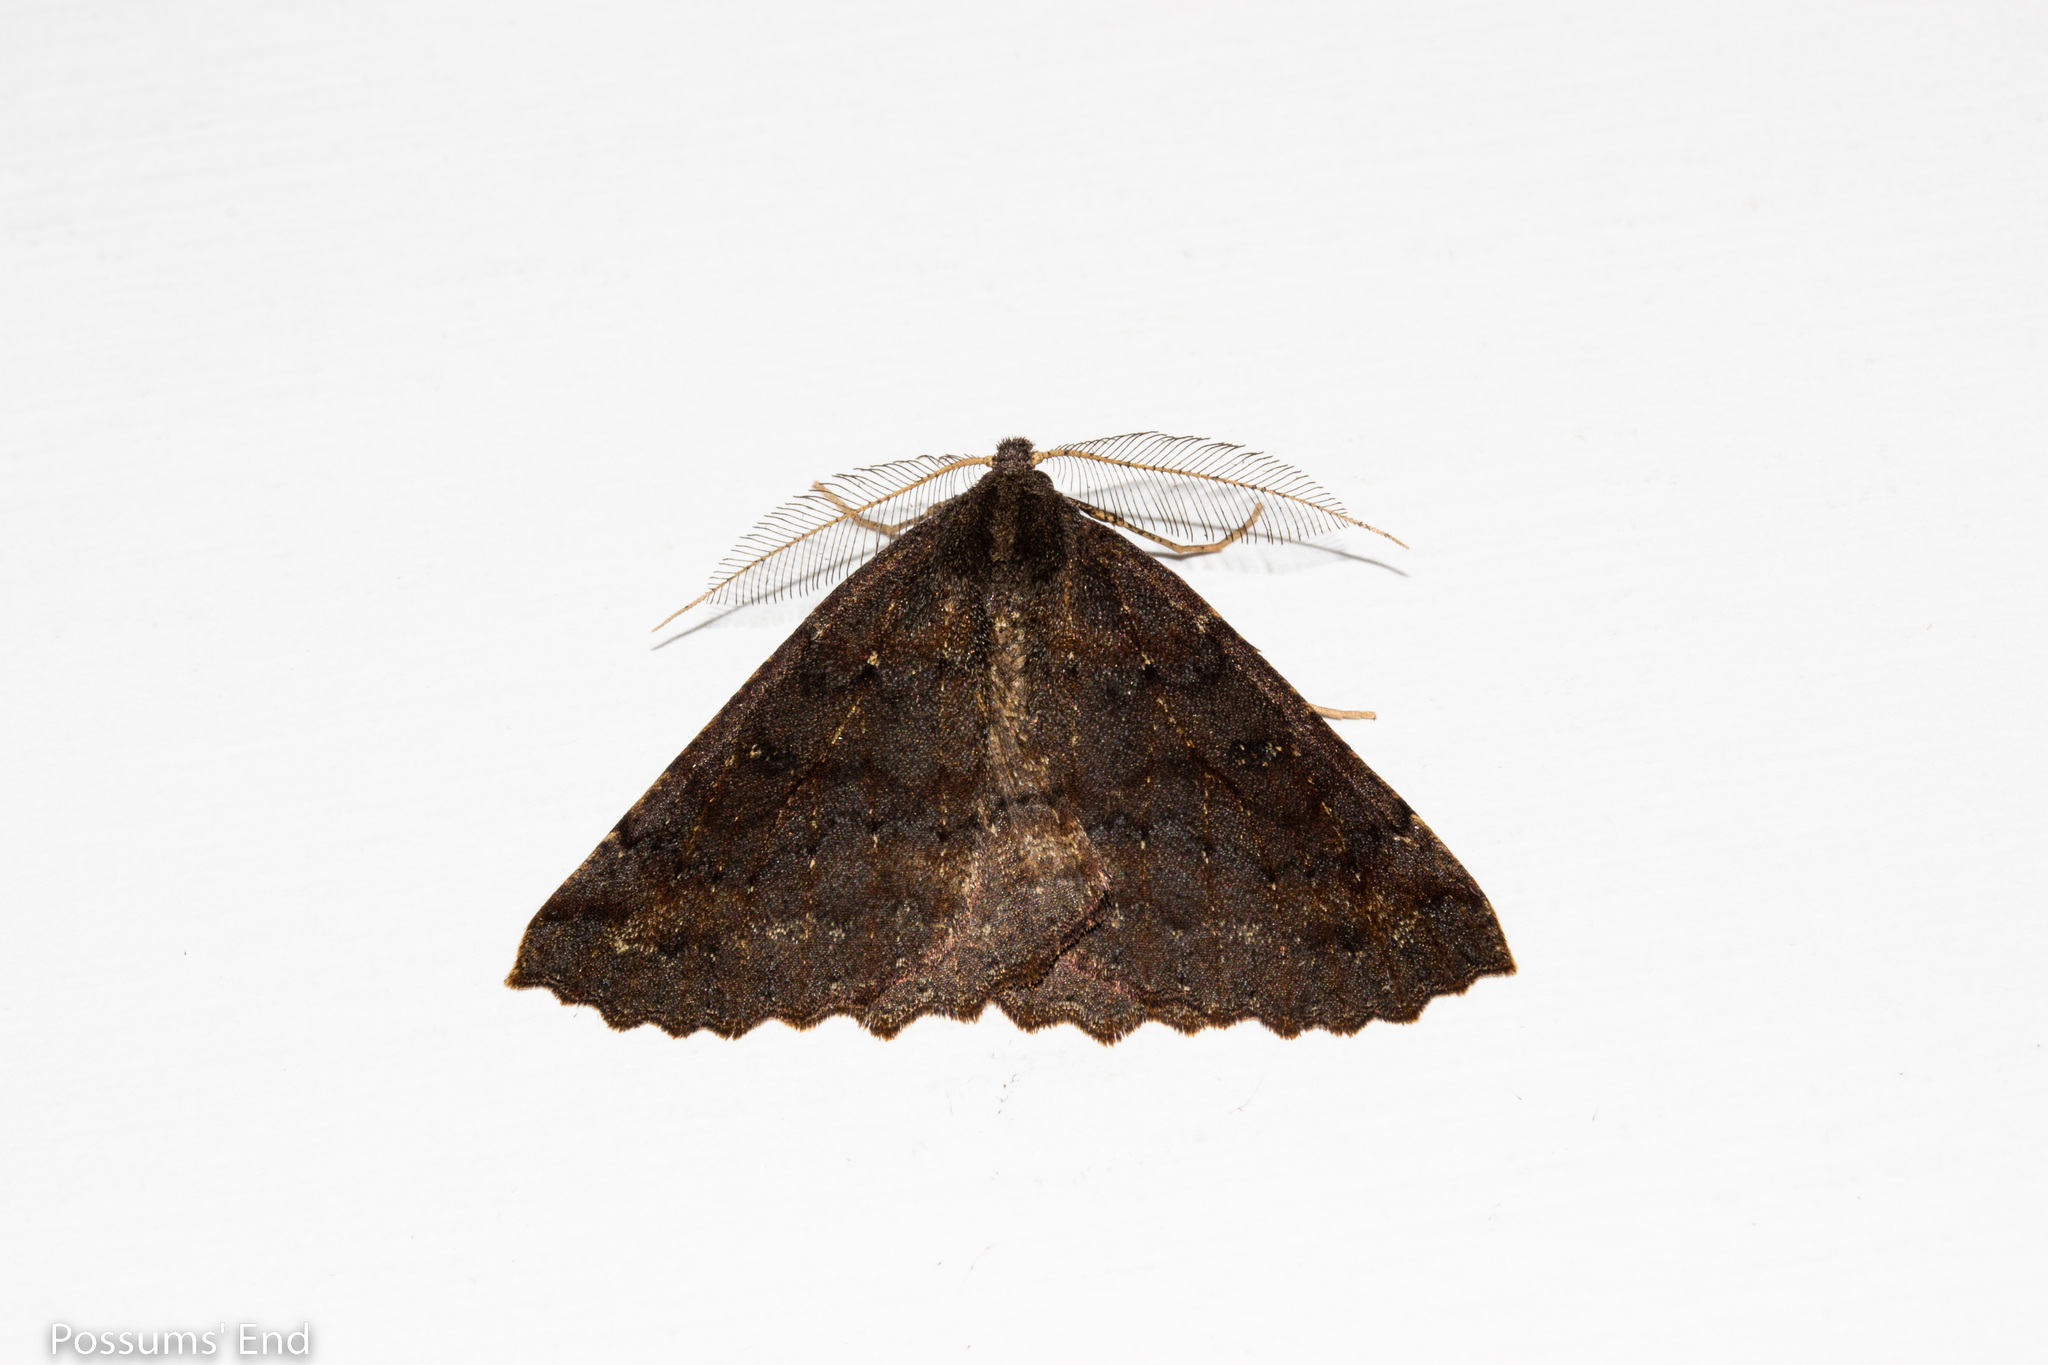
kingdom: Animalia
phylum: Arthropoda
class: Insecta
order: Lepidoptera
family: Geometridae
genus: Cleora
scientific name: Cleora scriptaria
